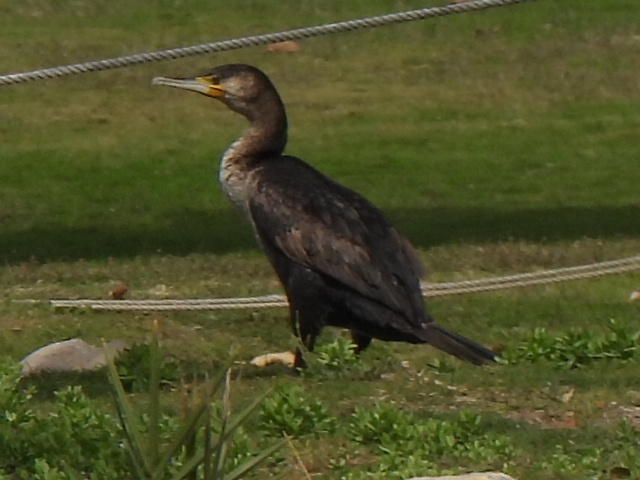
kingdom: Animalia
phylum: Chordata
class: Aves
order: Suliformes
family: Phalacrocoracidae
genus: Phalacrocorax
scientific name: Phalacrocorax carbo
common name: Great cormorant
